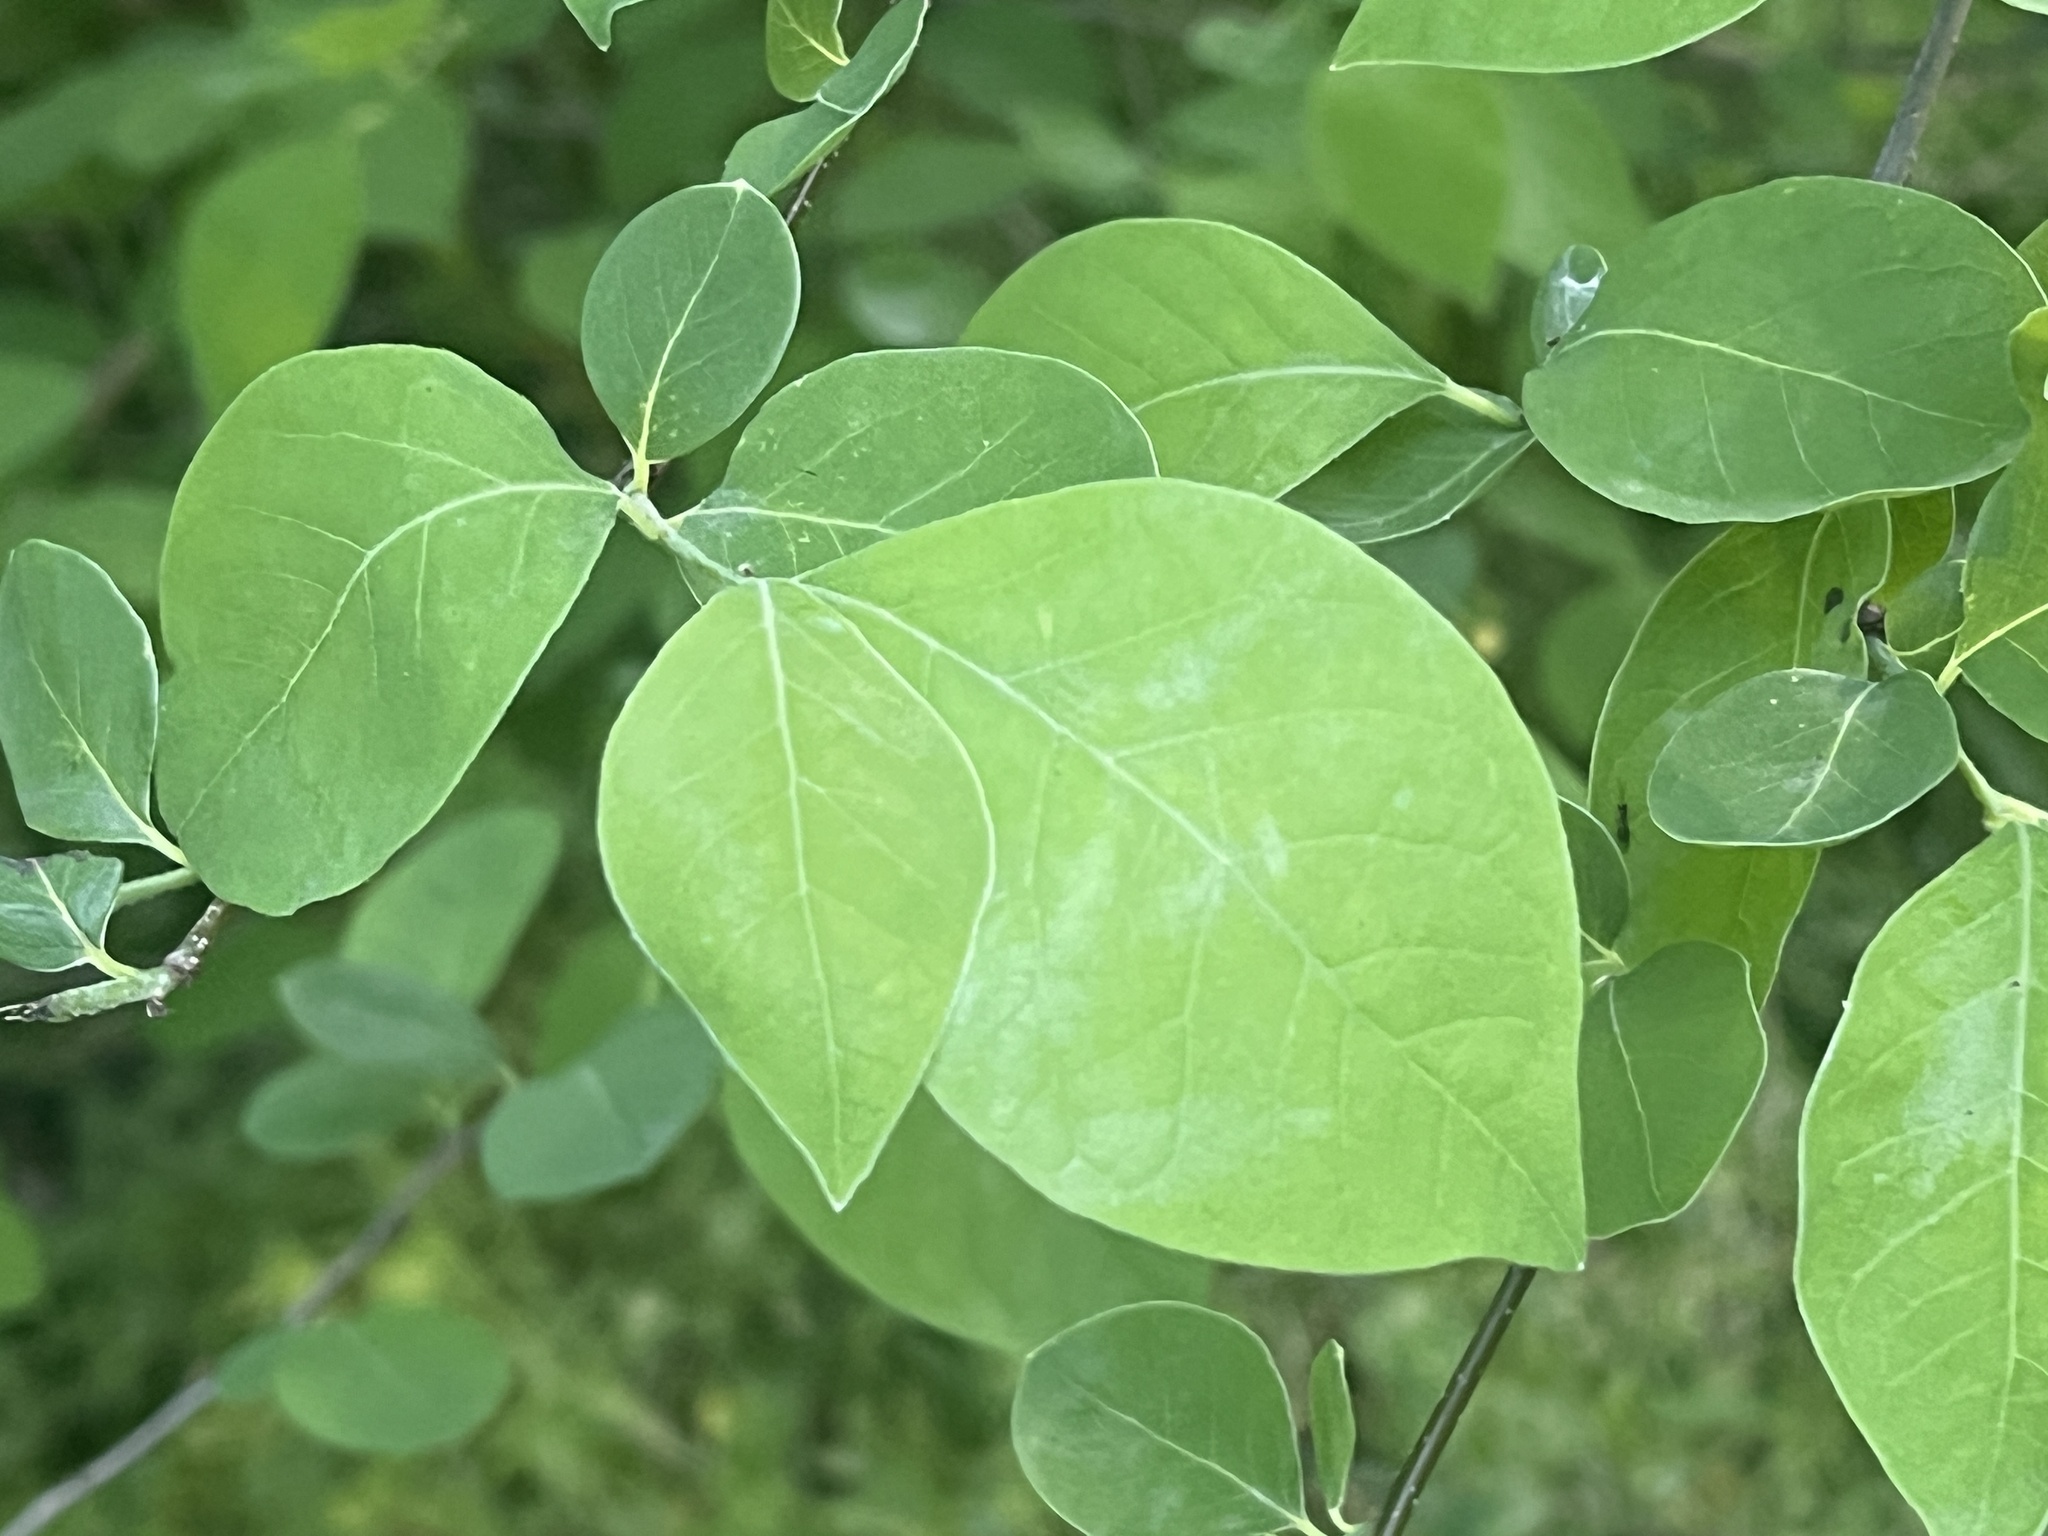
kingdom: Plantae
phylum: Tracheophyta
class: Magnoliopsida
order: Laurales
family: Lauraceae
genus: Lindera
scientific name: Lindera benzoin
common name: Spicebush
